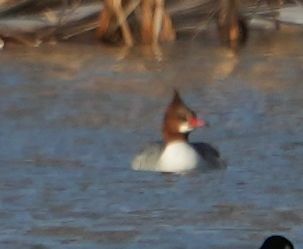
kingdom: Animalia
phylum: Chordata
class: Aves
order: Anseriformes
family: Anatidae
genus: Mergus
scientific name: Mergus merganser
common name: Common merganser
